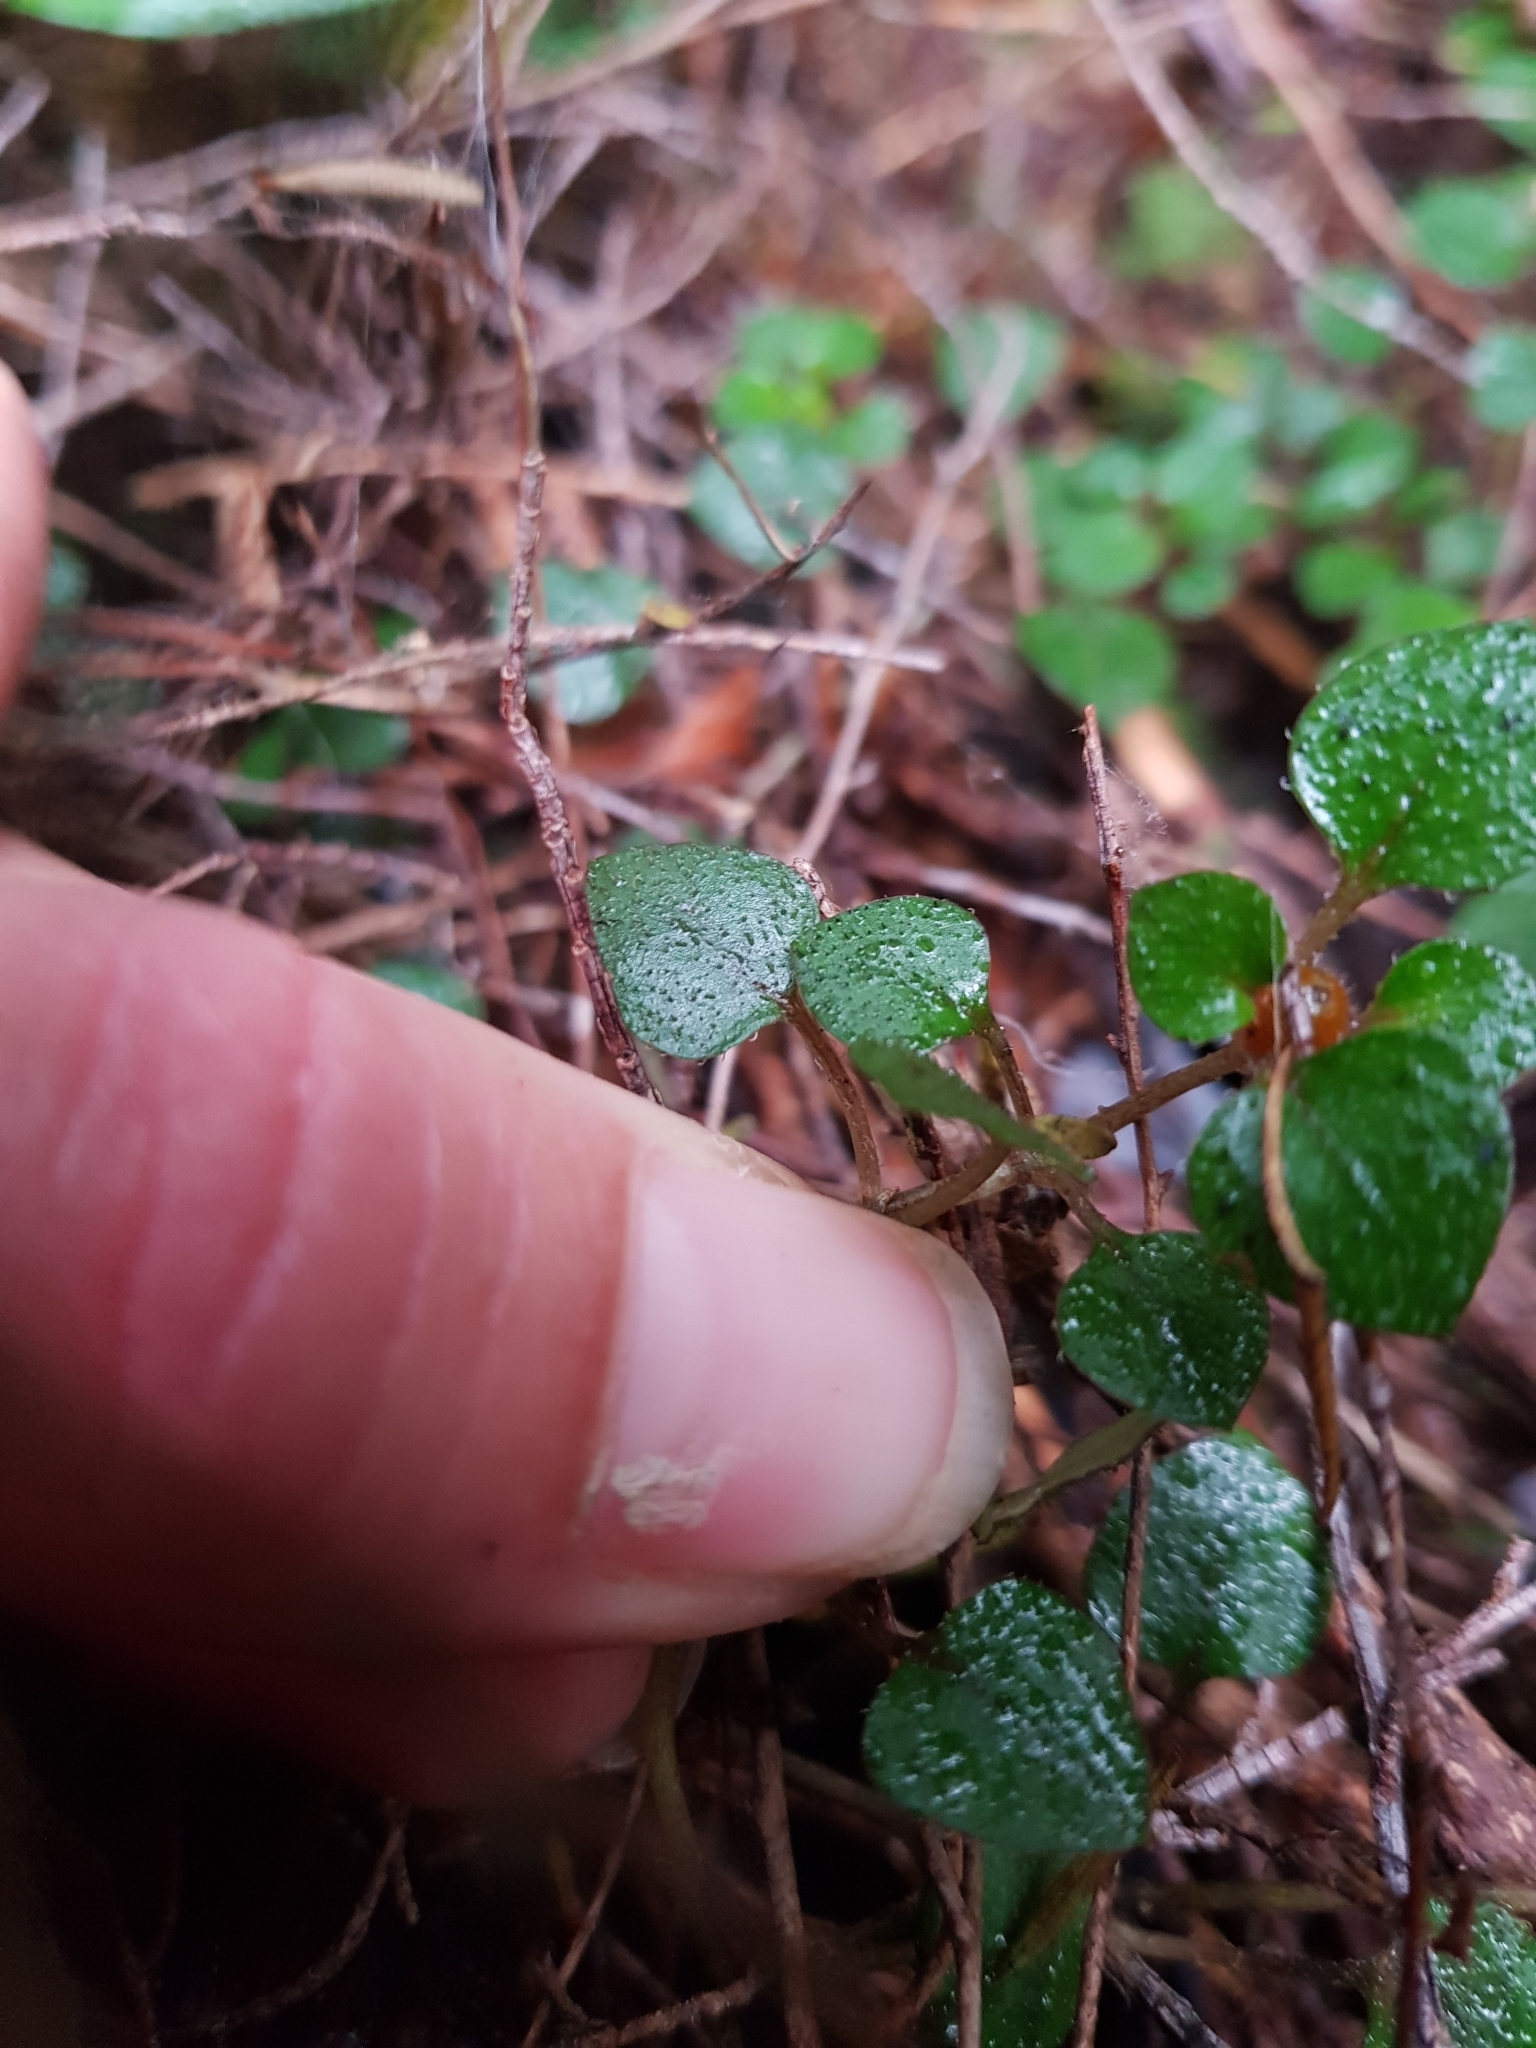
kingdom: Plantae
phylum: Tracheophyta
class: Magnoliopsida
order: Gentianales
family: Rubiaceae
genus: Nertera
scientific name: Nertera dichondrifolia
